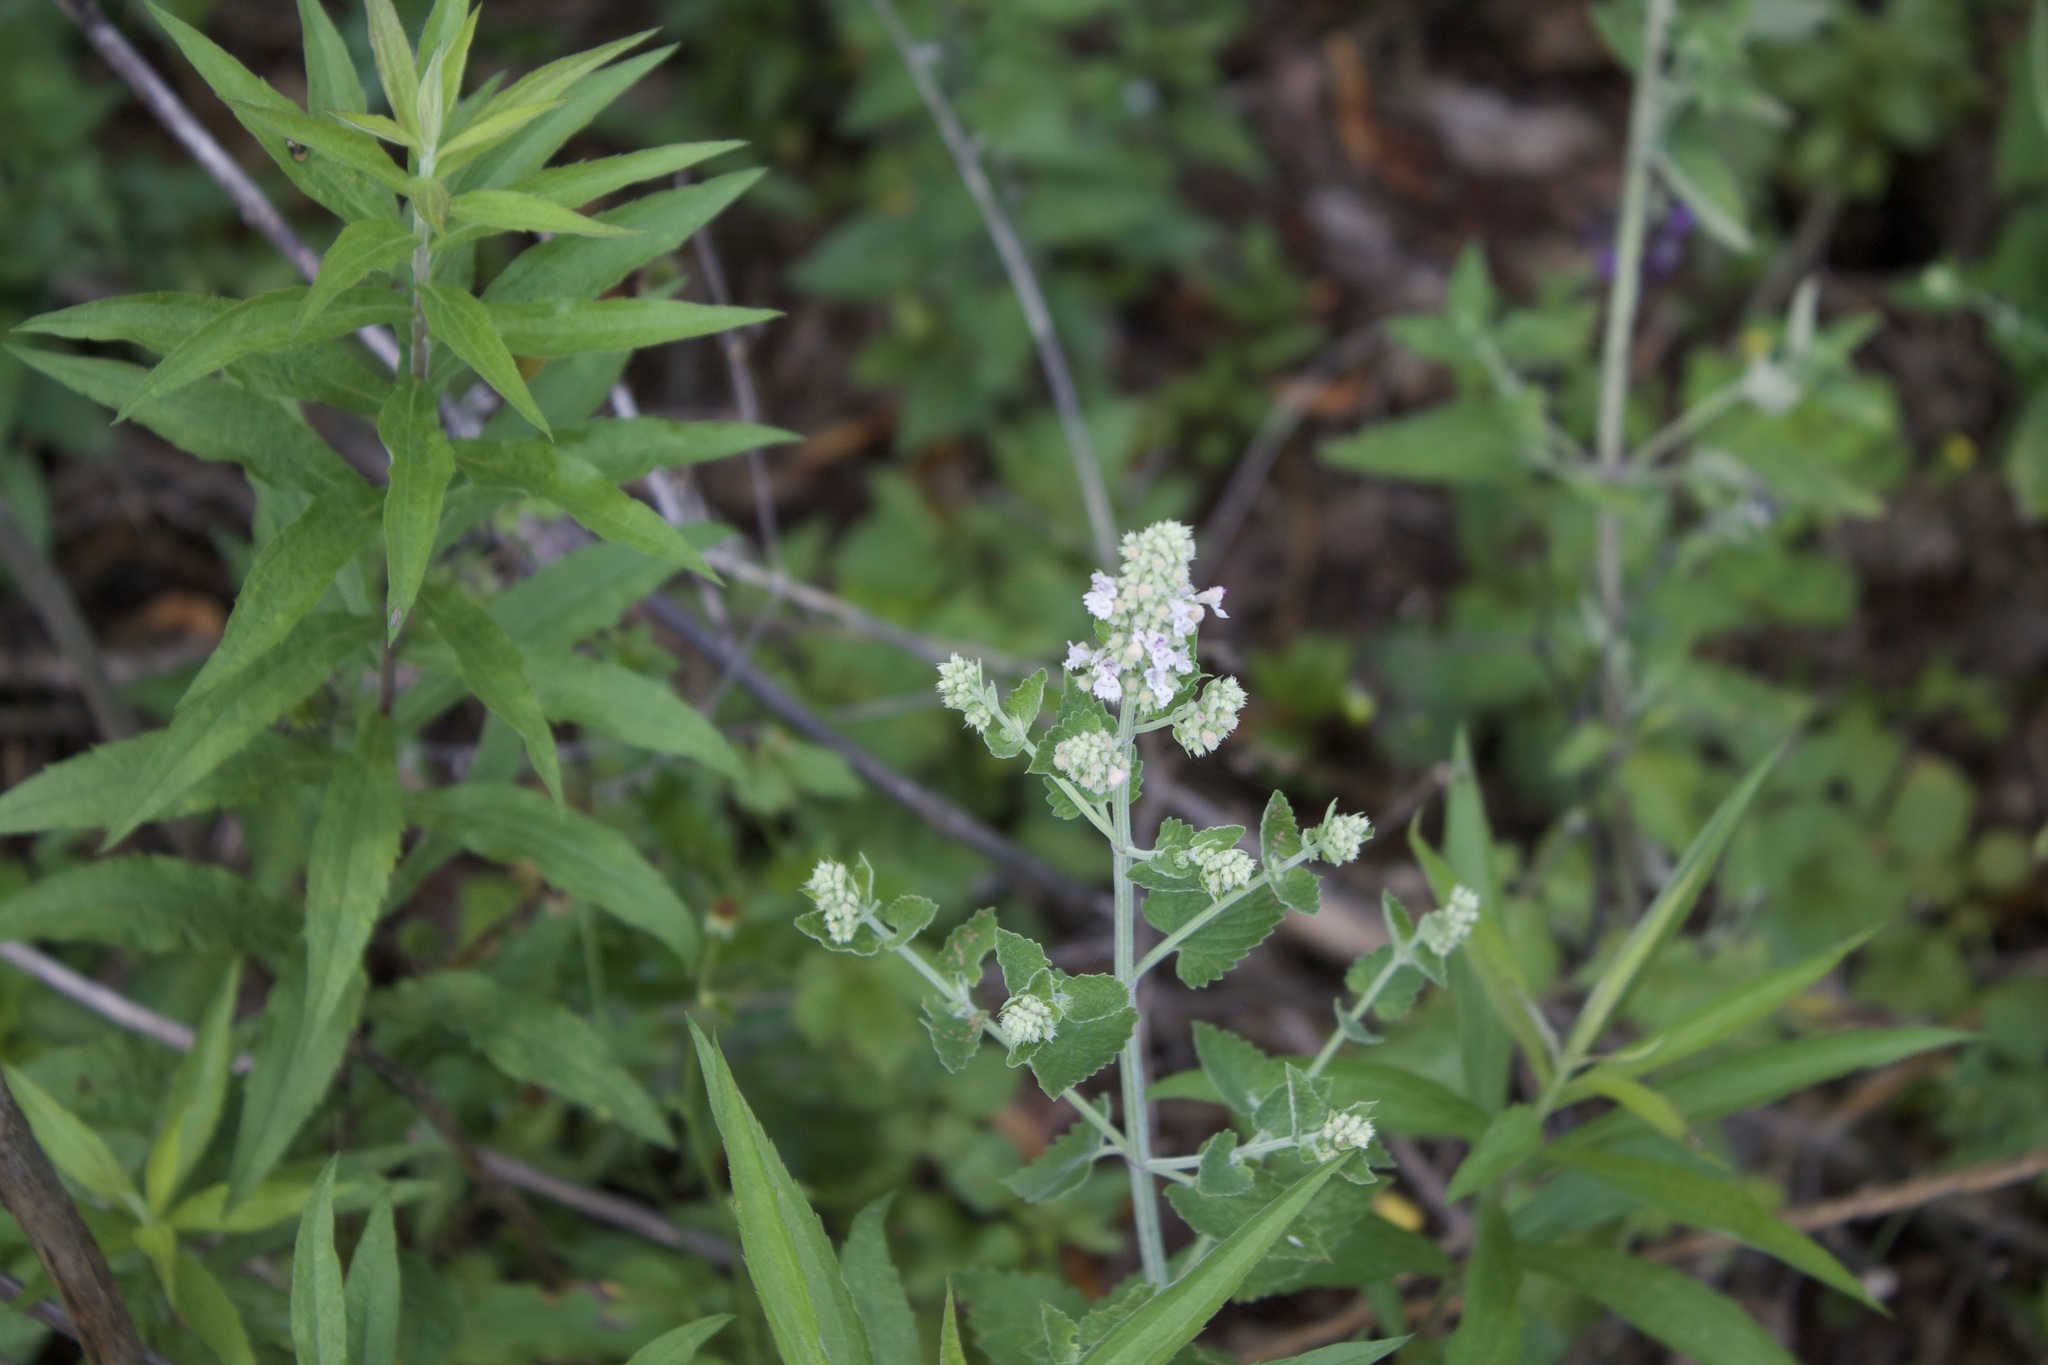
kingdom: Plantae
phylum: Tracheophyta
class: Magnoliopsida
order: Lamiales
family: Lamiaceae
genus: Nepeta
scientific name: Nepeta cataria
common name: Catnip
